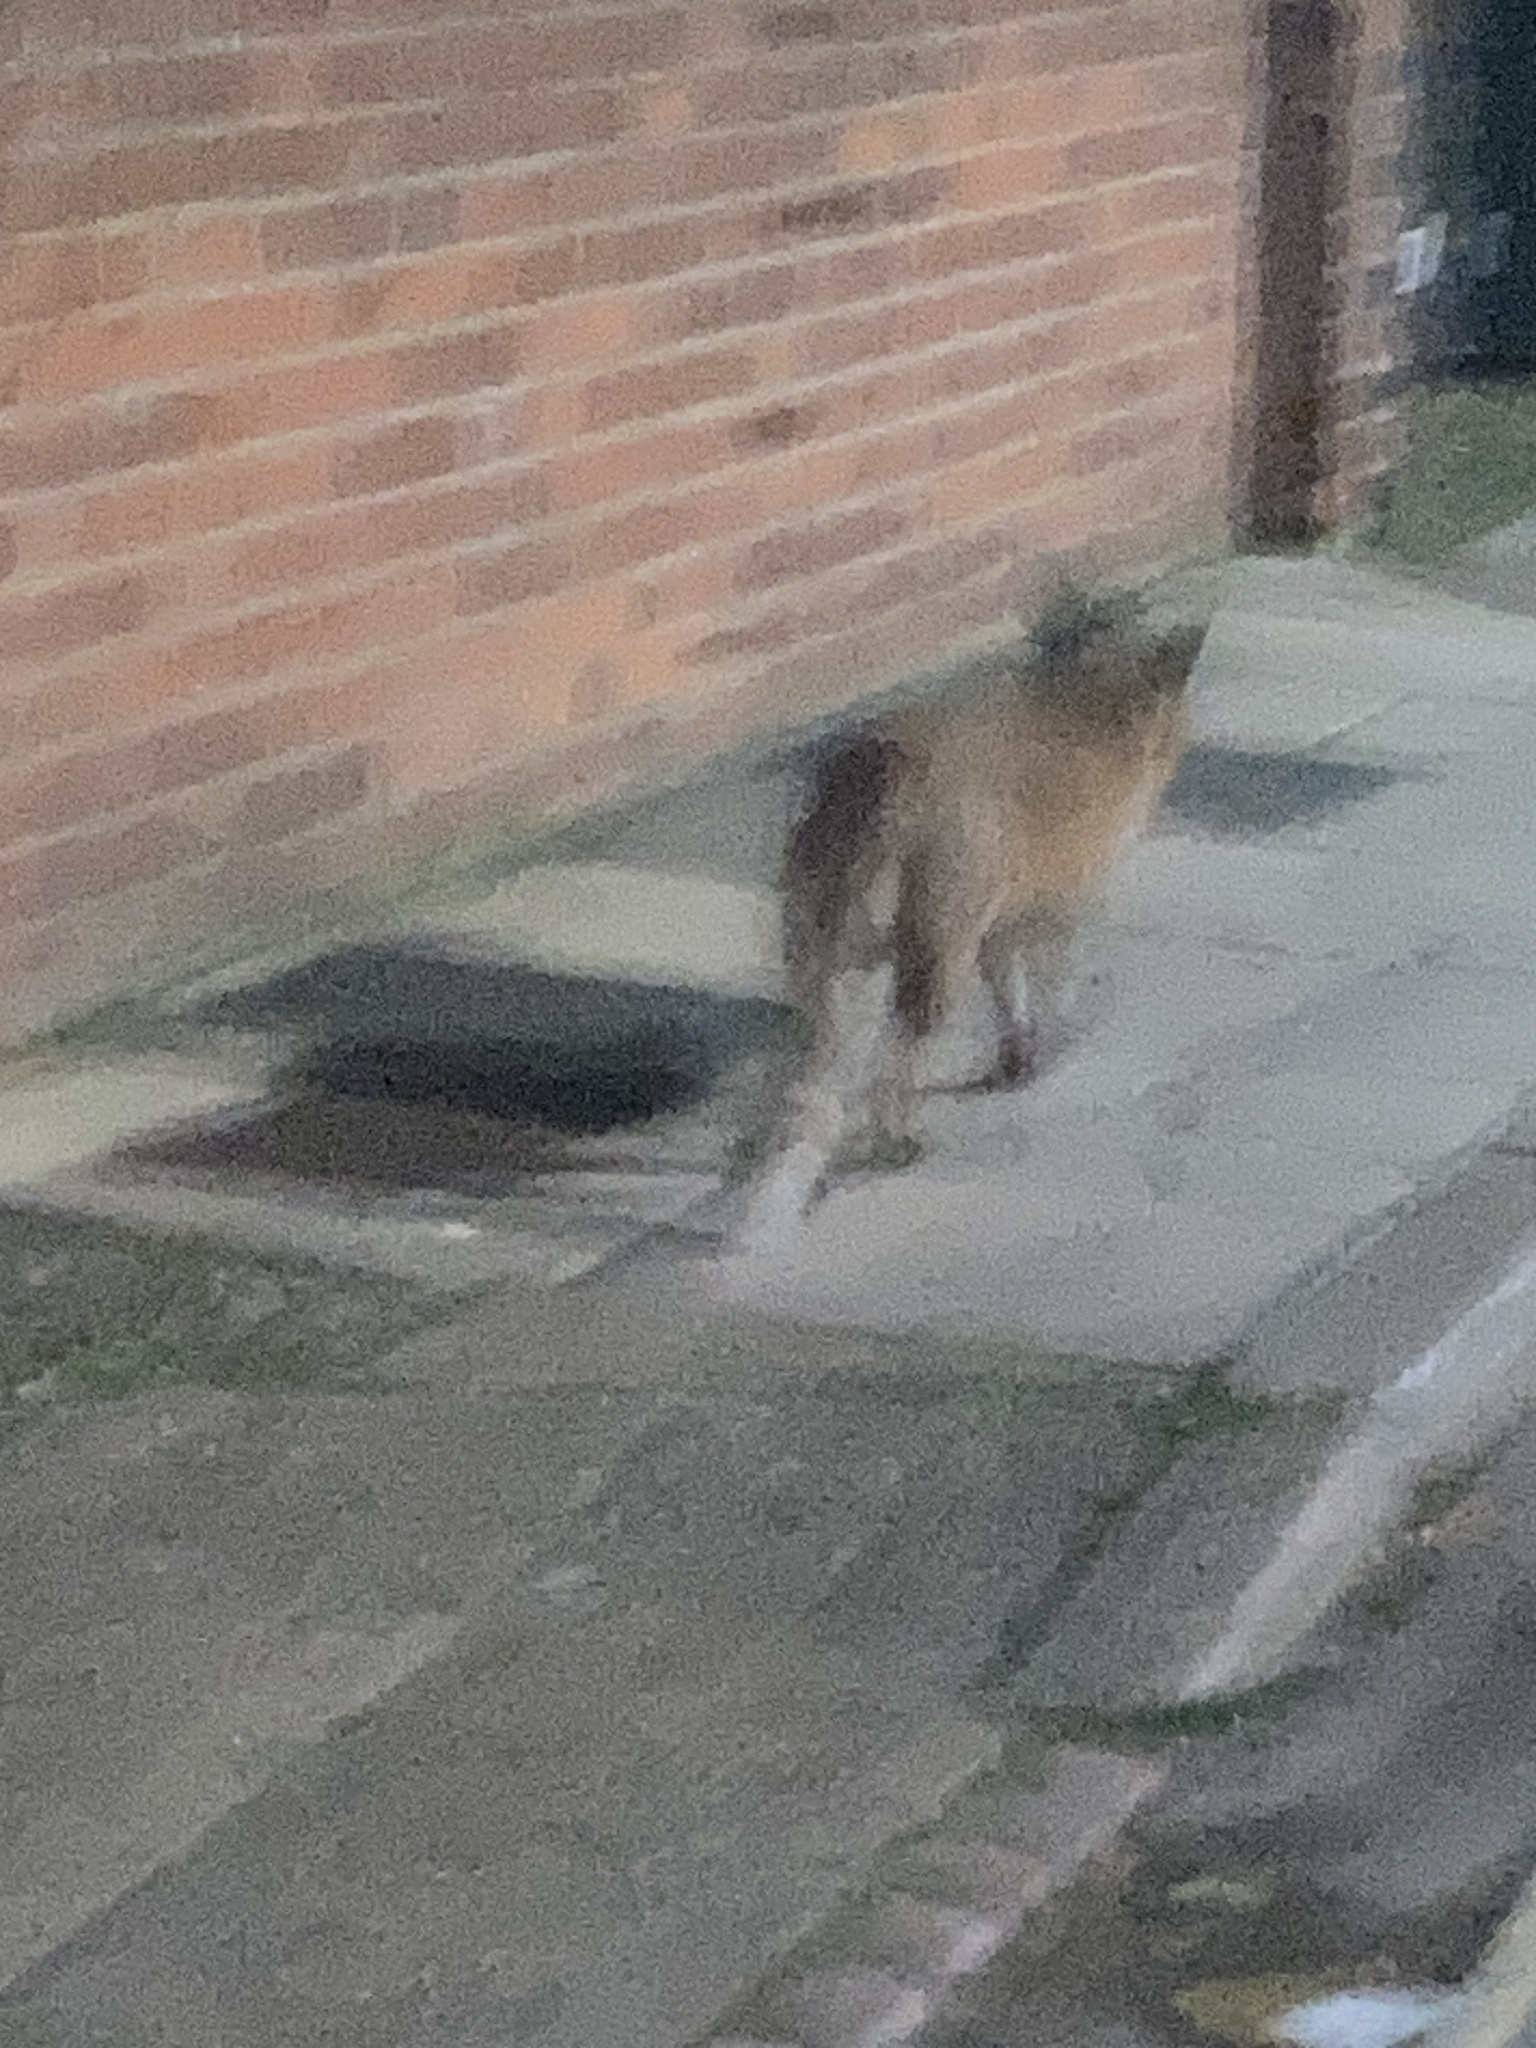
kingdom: Animalia
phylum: Chordata
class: Mammalia
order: Carnivora
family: Canidae
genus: Vulpes
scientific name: Vulpes vulpes
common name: Red fox
